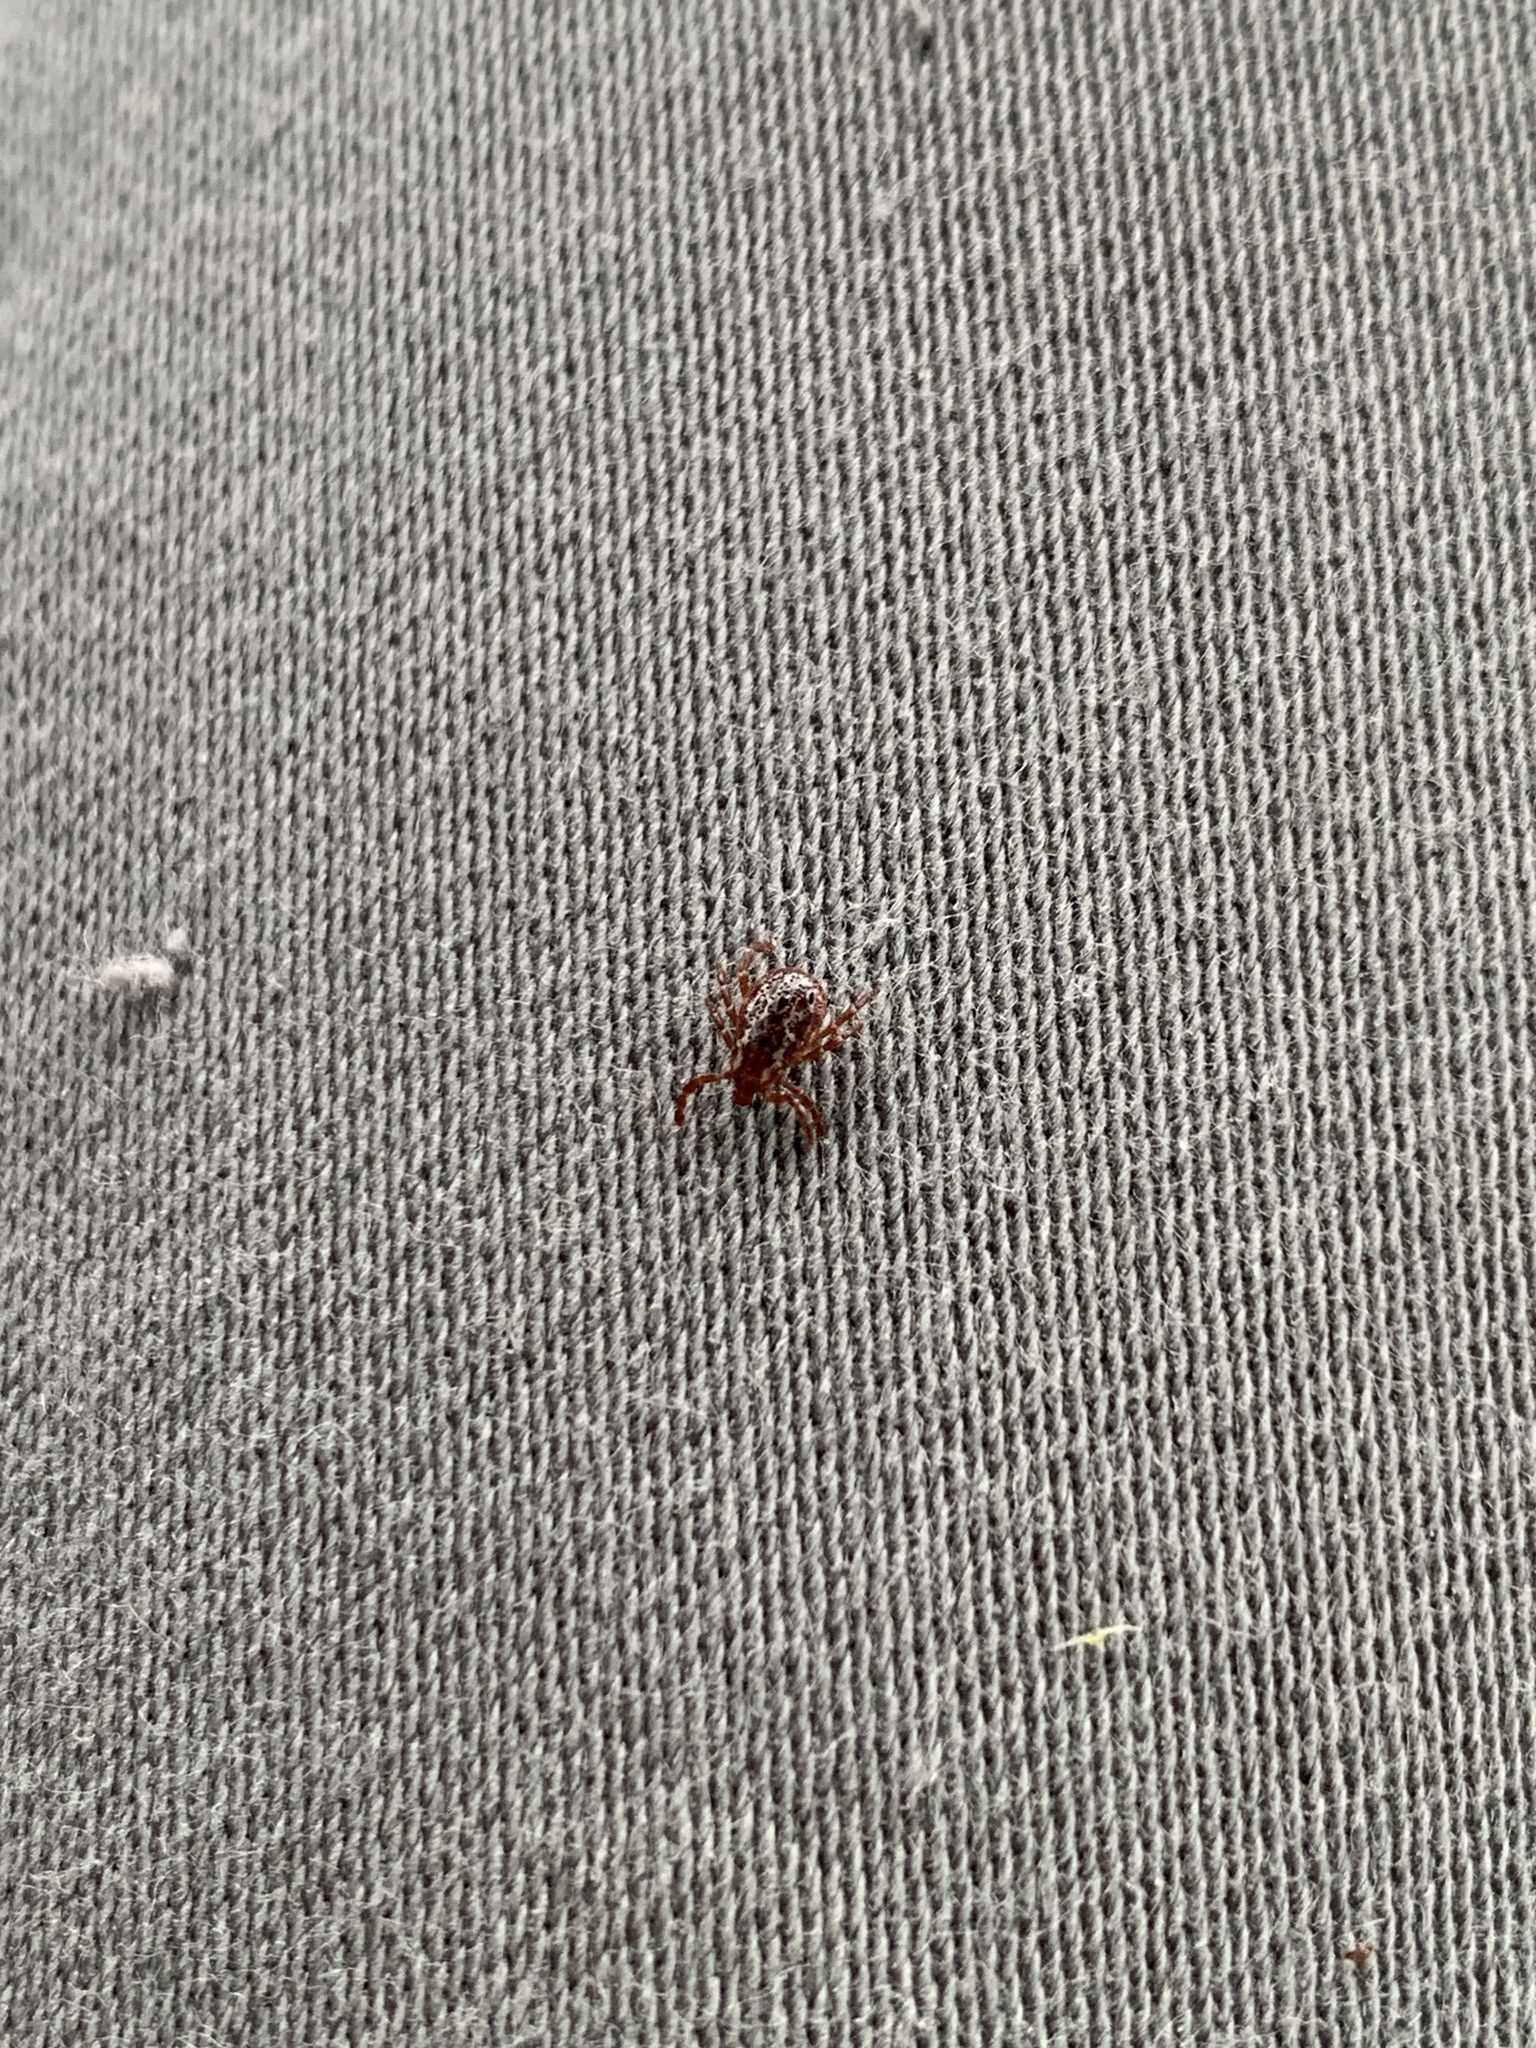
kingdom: Animalia
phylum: Arthropoda
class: Arachnida
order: Ixodida
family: Ixodidae
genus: Dermacentor
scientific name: Dermacentor variabilis
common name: American dog tick
